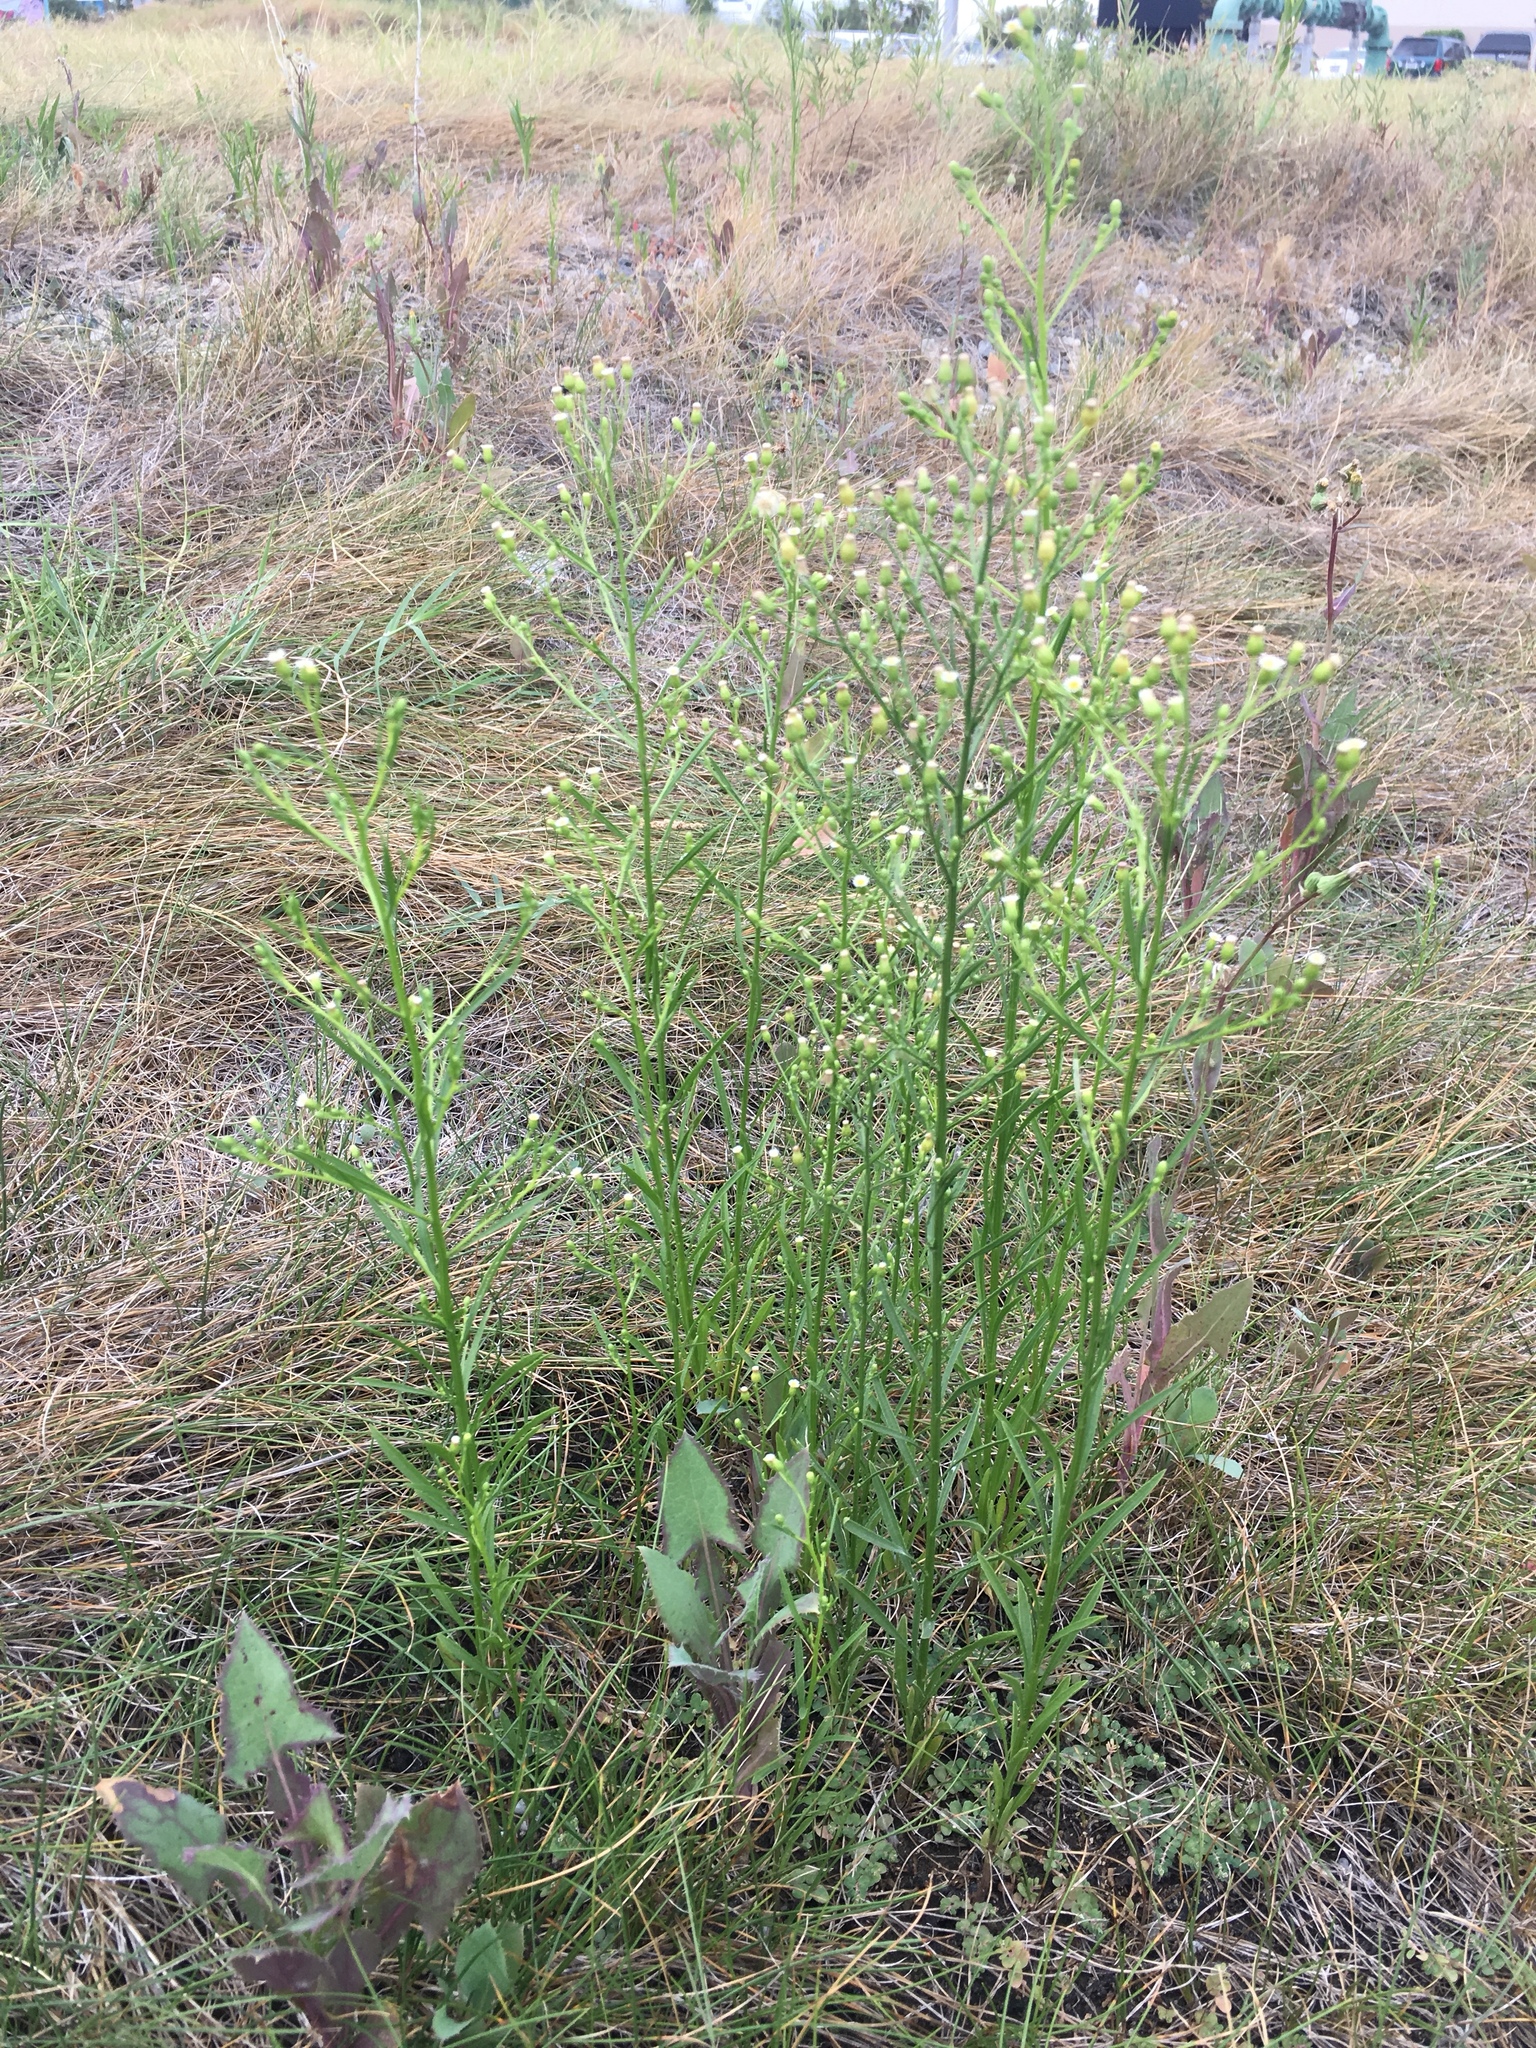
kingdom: Plantae
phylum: Tracheophyta
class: Magnoliopsida
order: Asterales
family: Asteraceae
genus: Erigeron
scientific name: Erigeron canadensis
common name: Canadian fleabane
